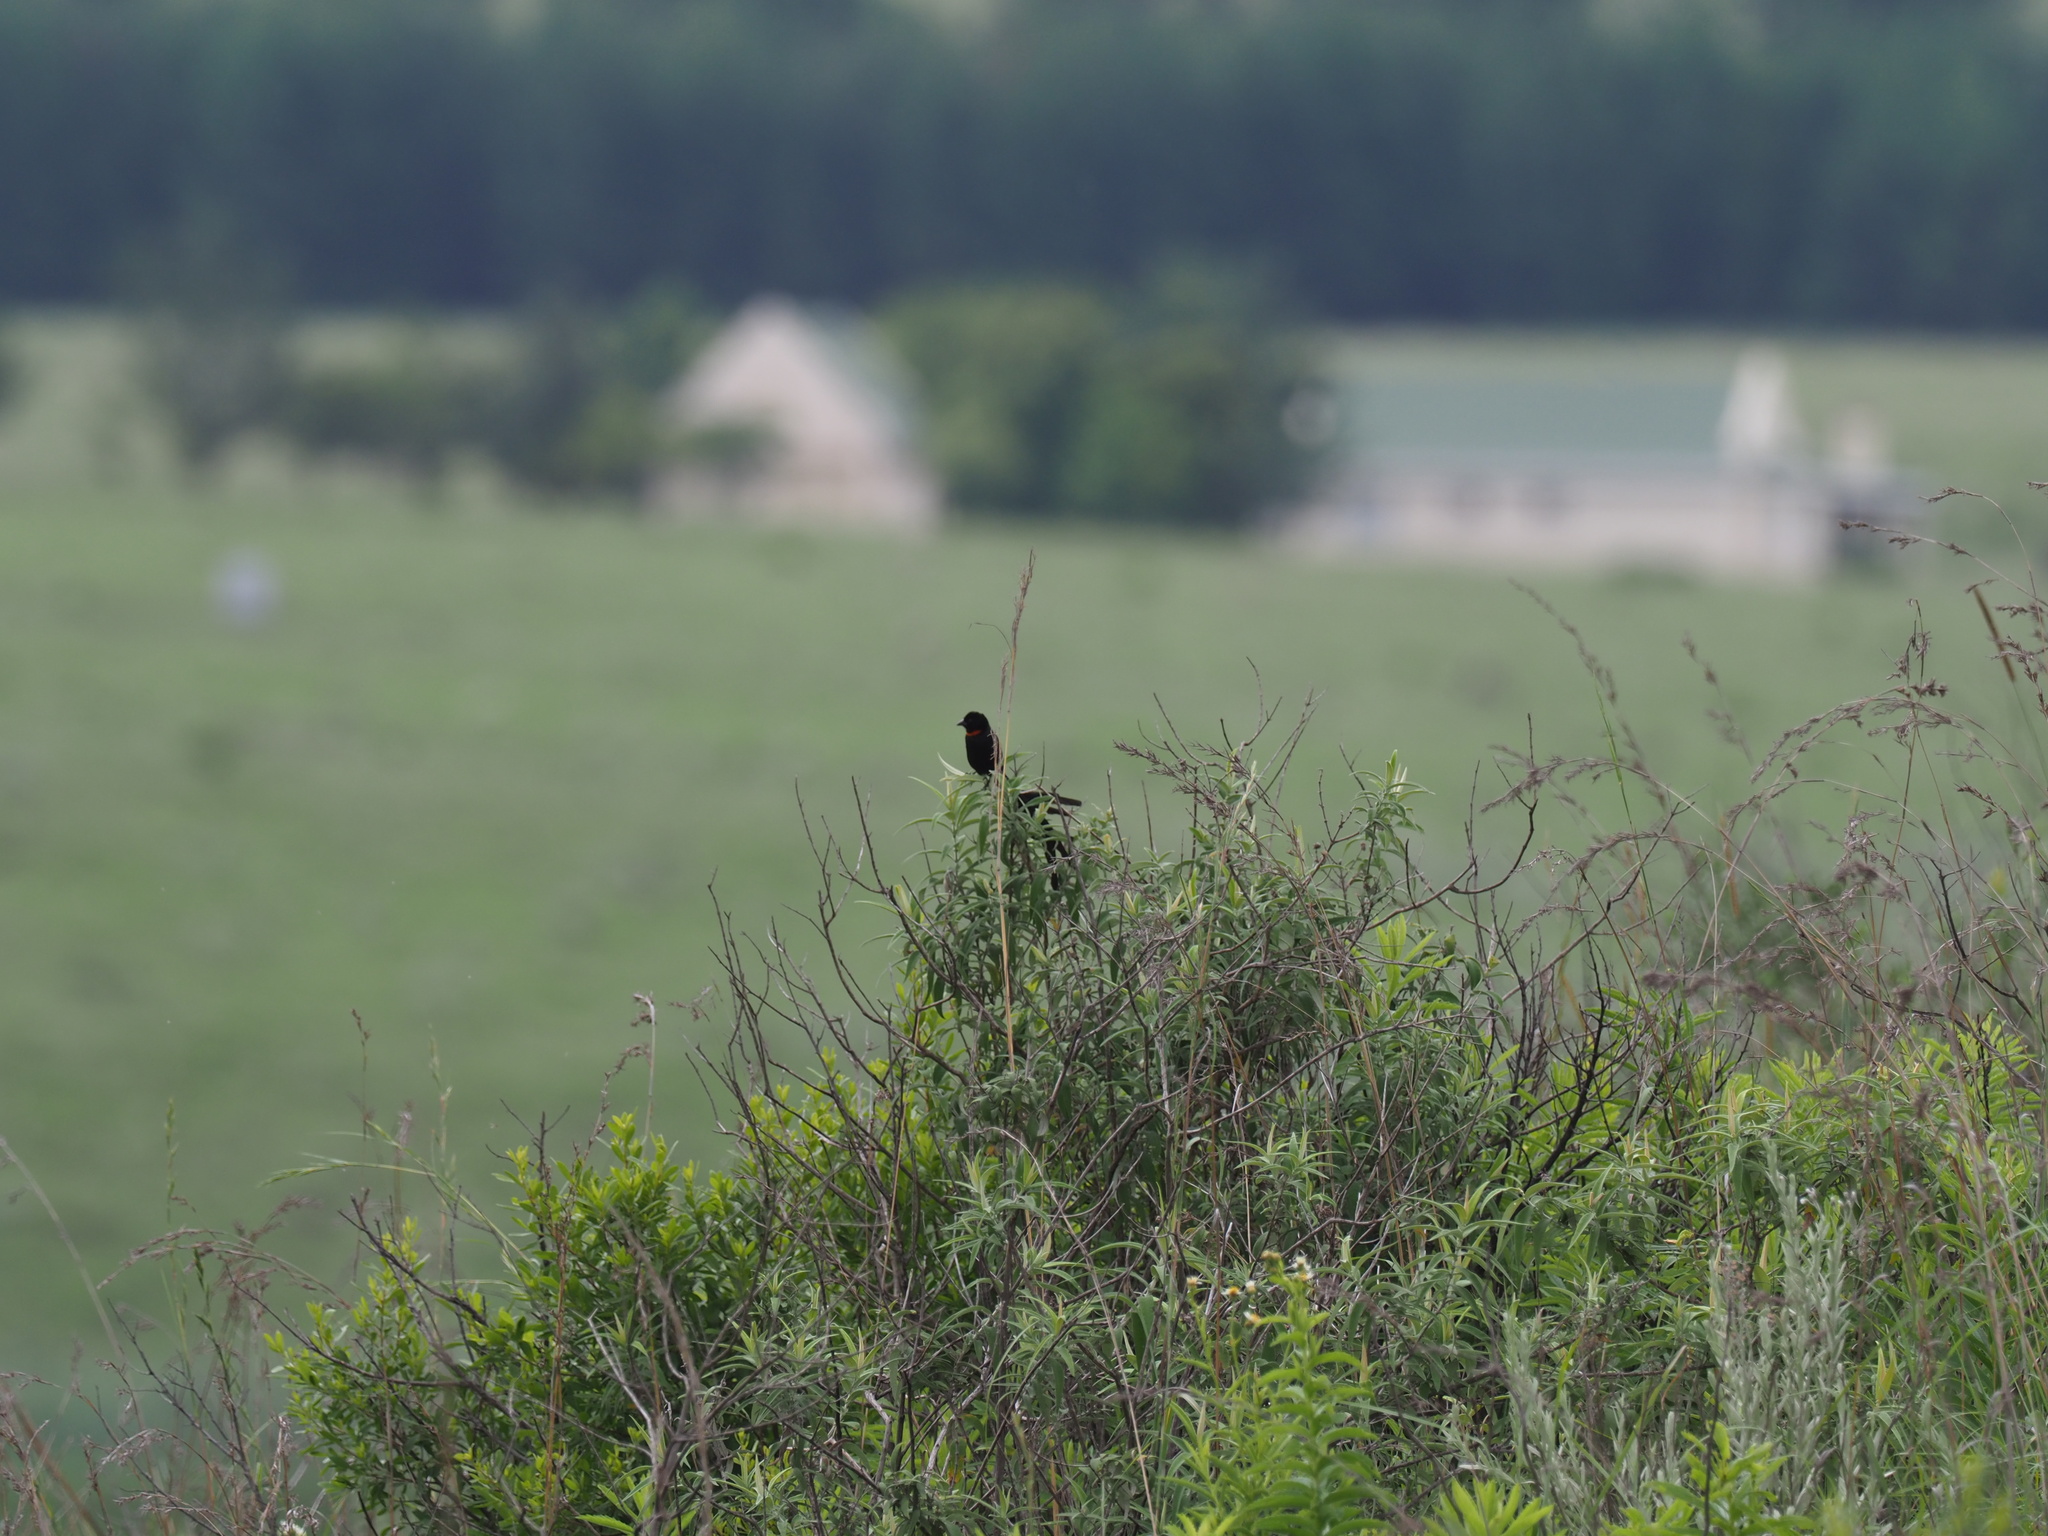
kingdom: Animalia
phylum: Chordata
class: Aves
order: Passeriformes
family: Ploceidae
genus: Euplectes
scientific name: Euplectes ardens
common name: Red-collared widowbird
